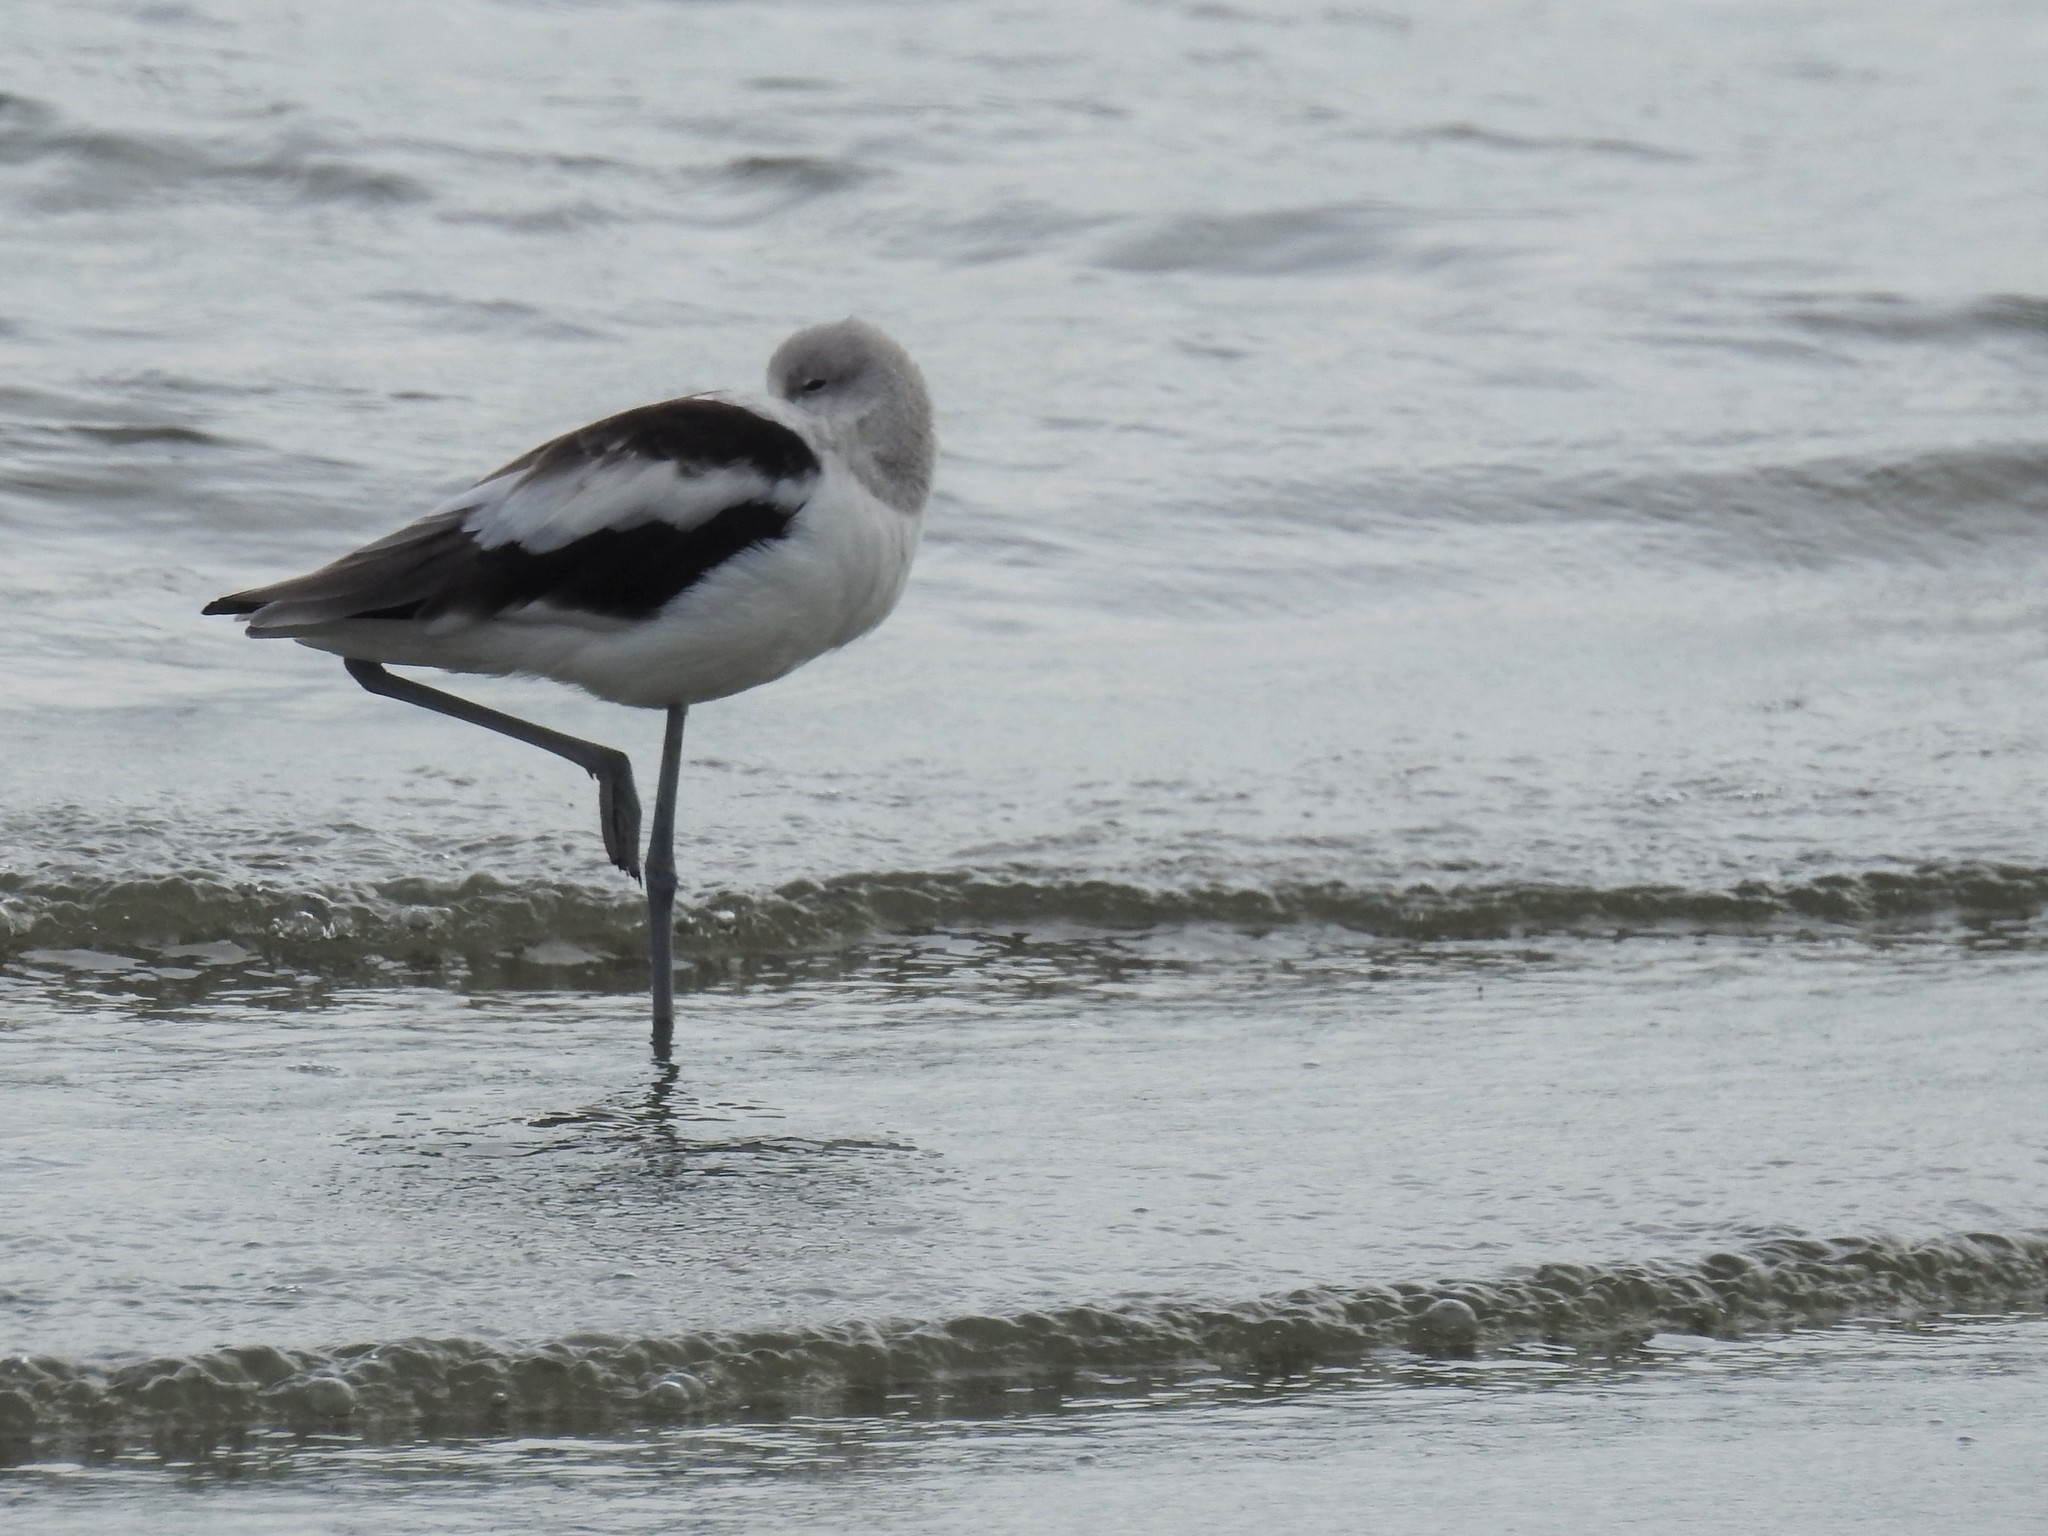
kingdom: Animalia
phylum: Chordata
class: Aves
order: Charadriiformes
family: Recurvirostridae
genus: Recurvirostra
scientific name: Recurvirostra americana
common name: American avocet
